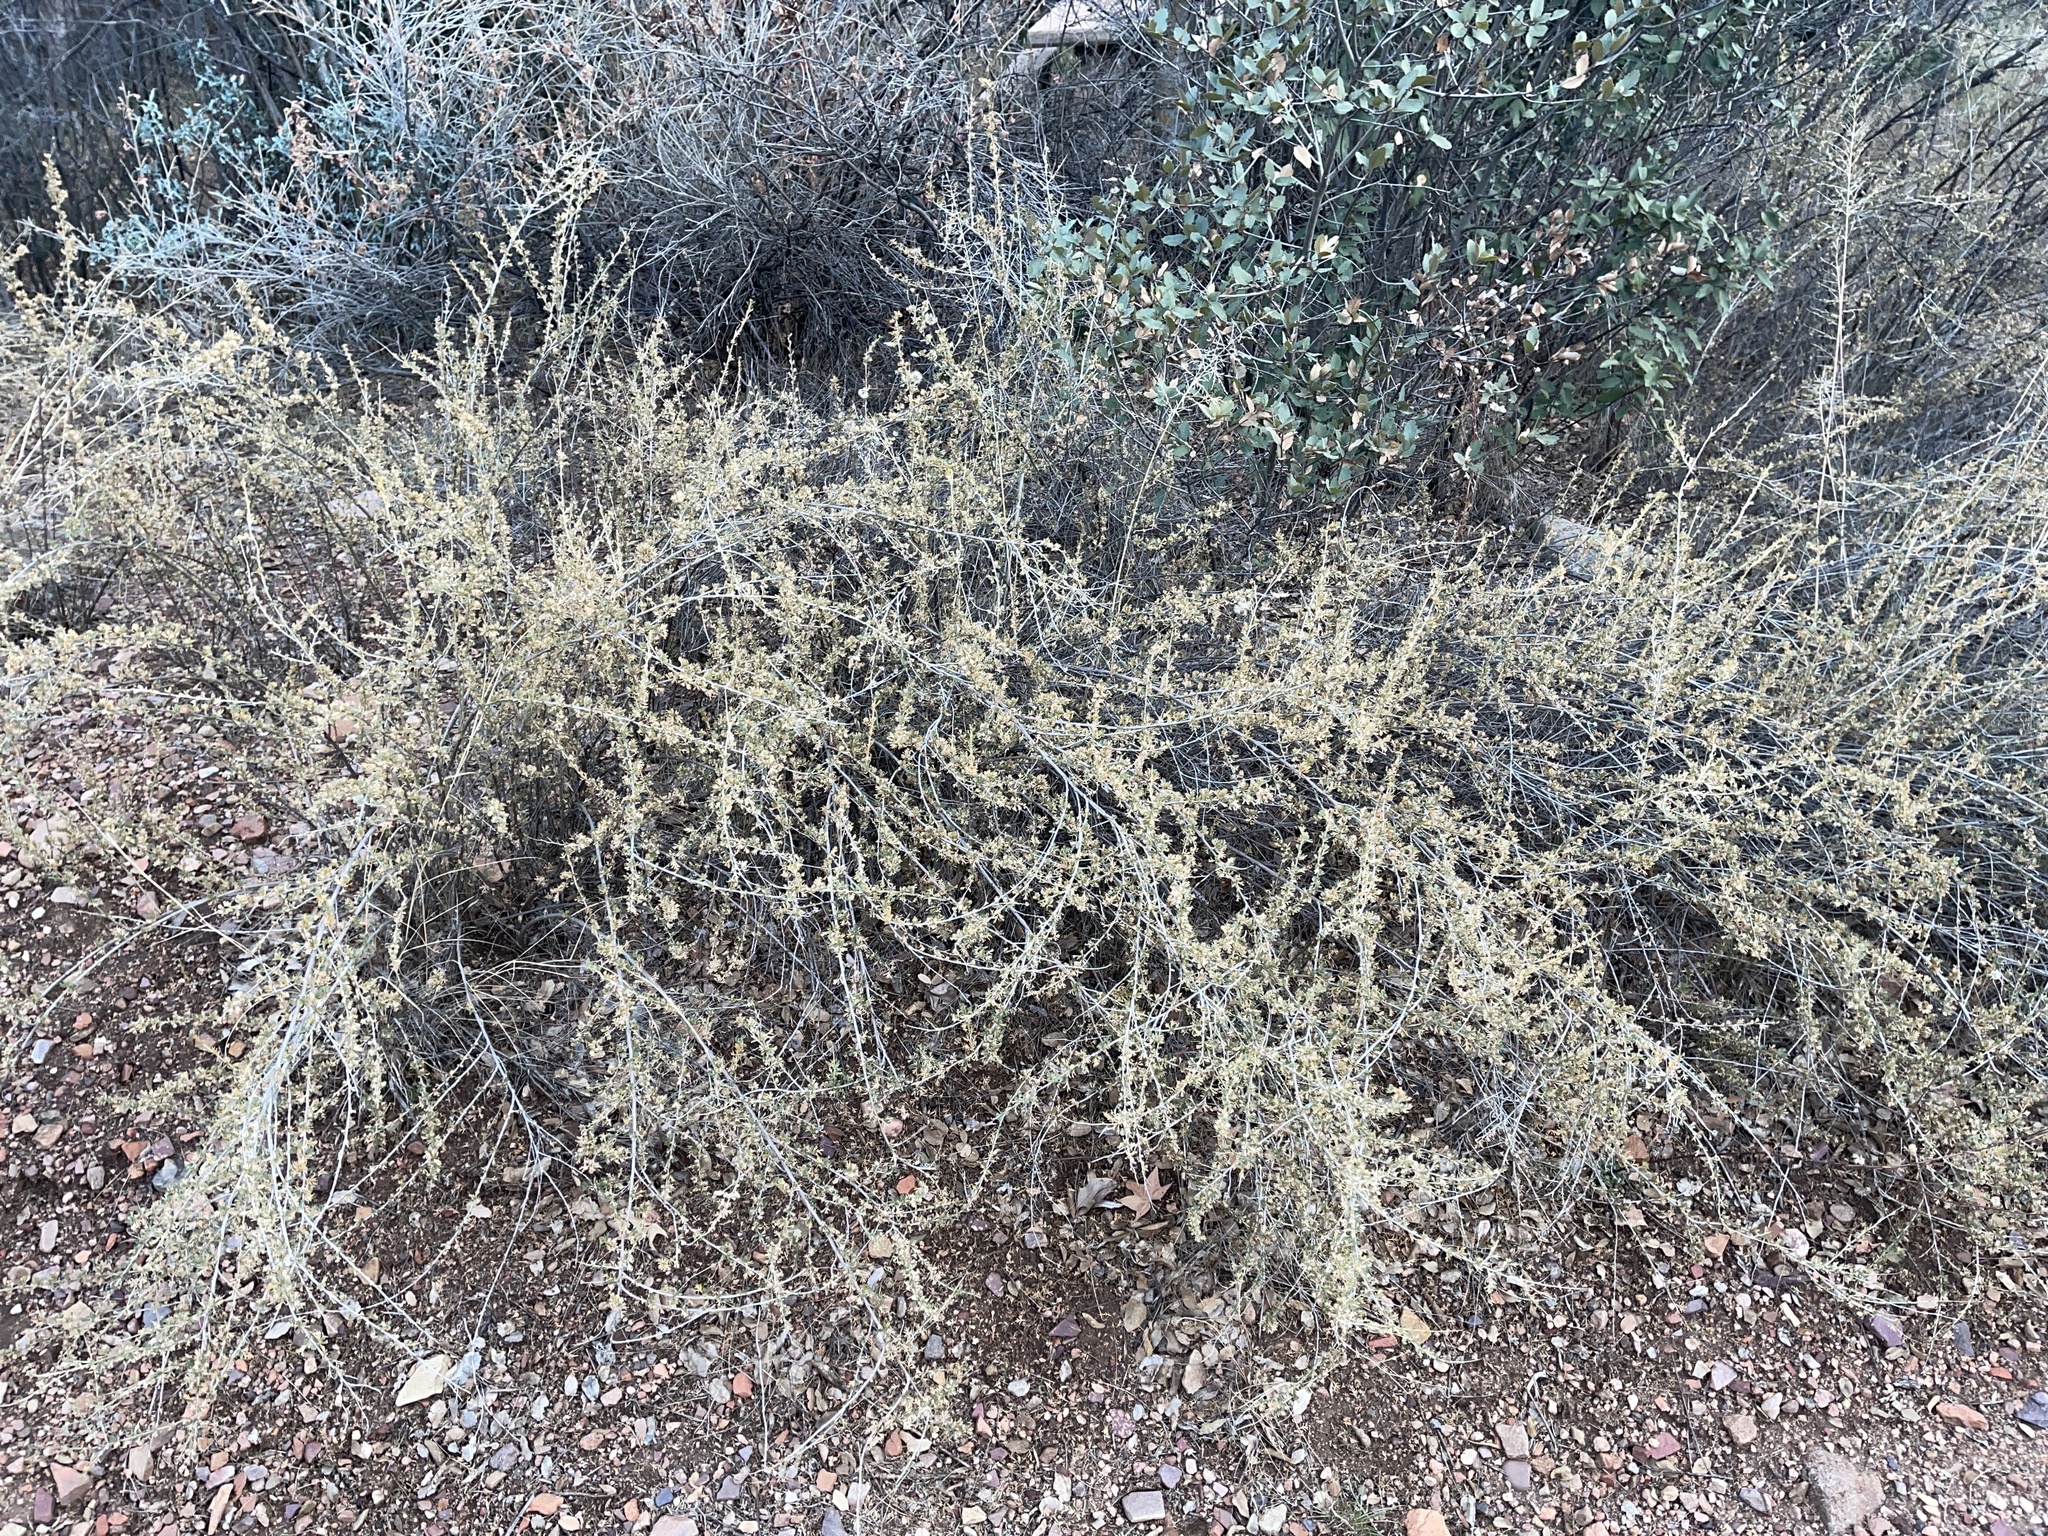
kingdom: Plantae
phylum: Tracheophyta
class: Magnoliopsida
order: Rosales
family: Rosaceae
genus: Fallugia
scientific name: Fallugia paradoxa
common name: Apache-plume
